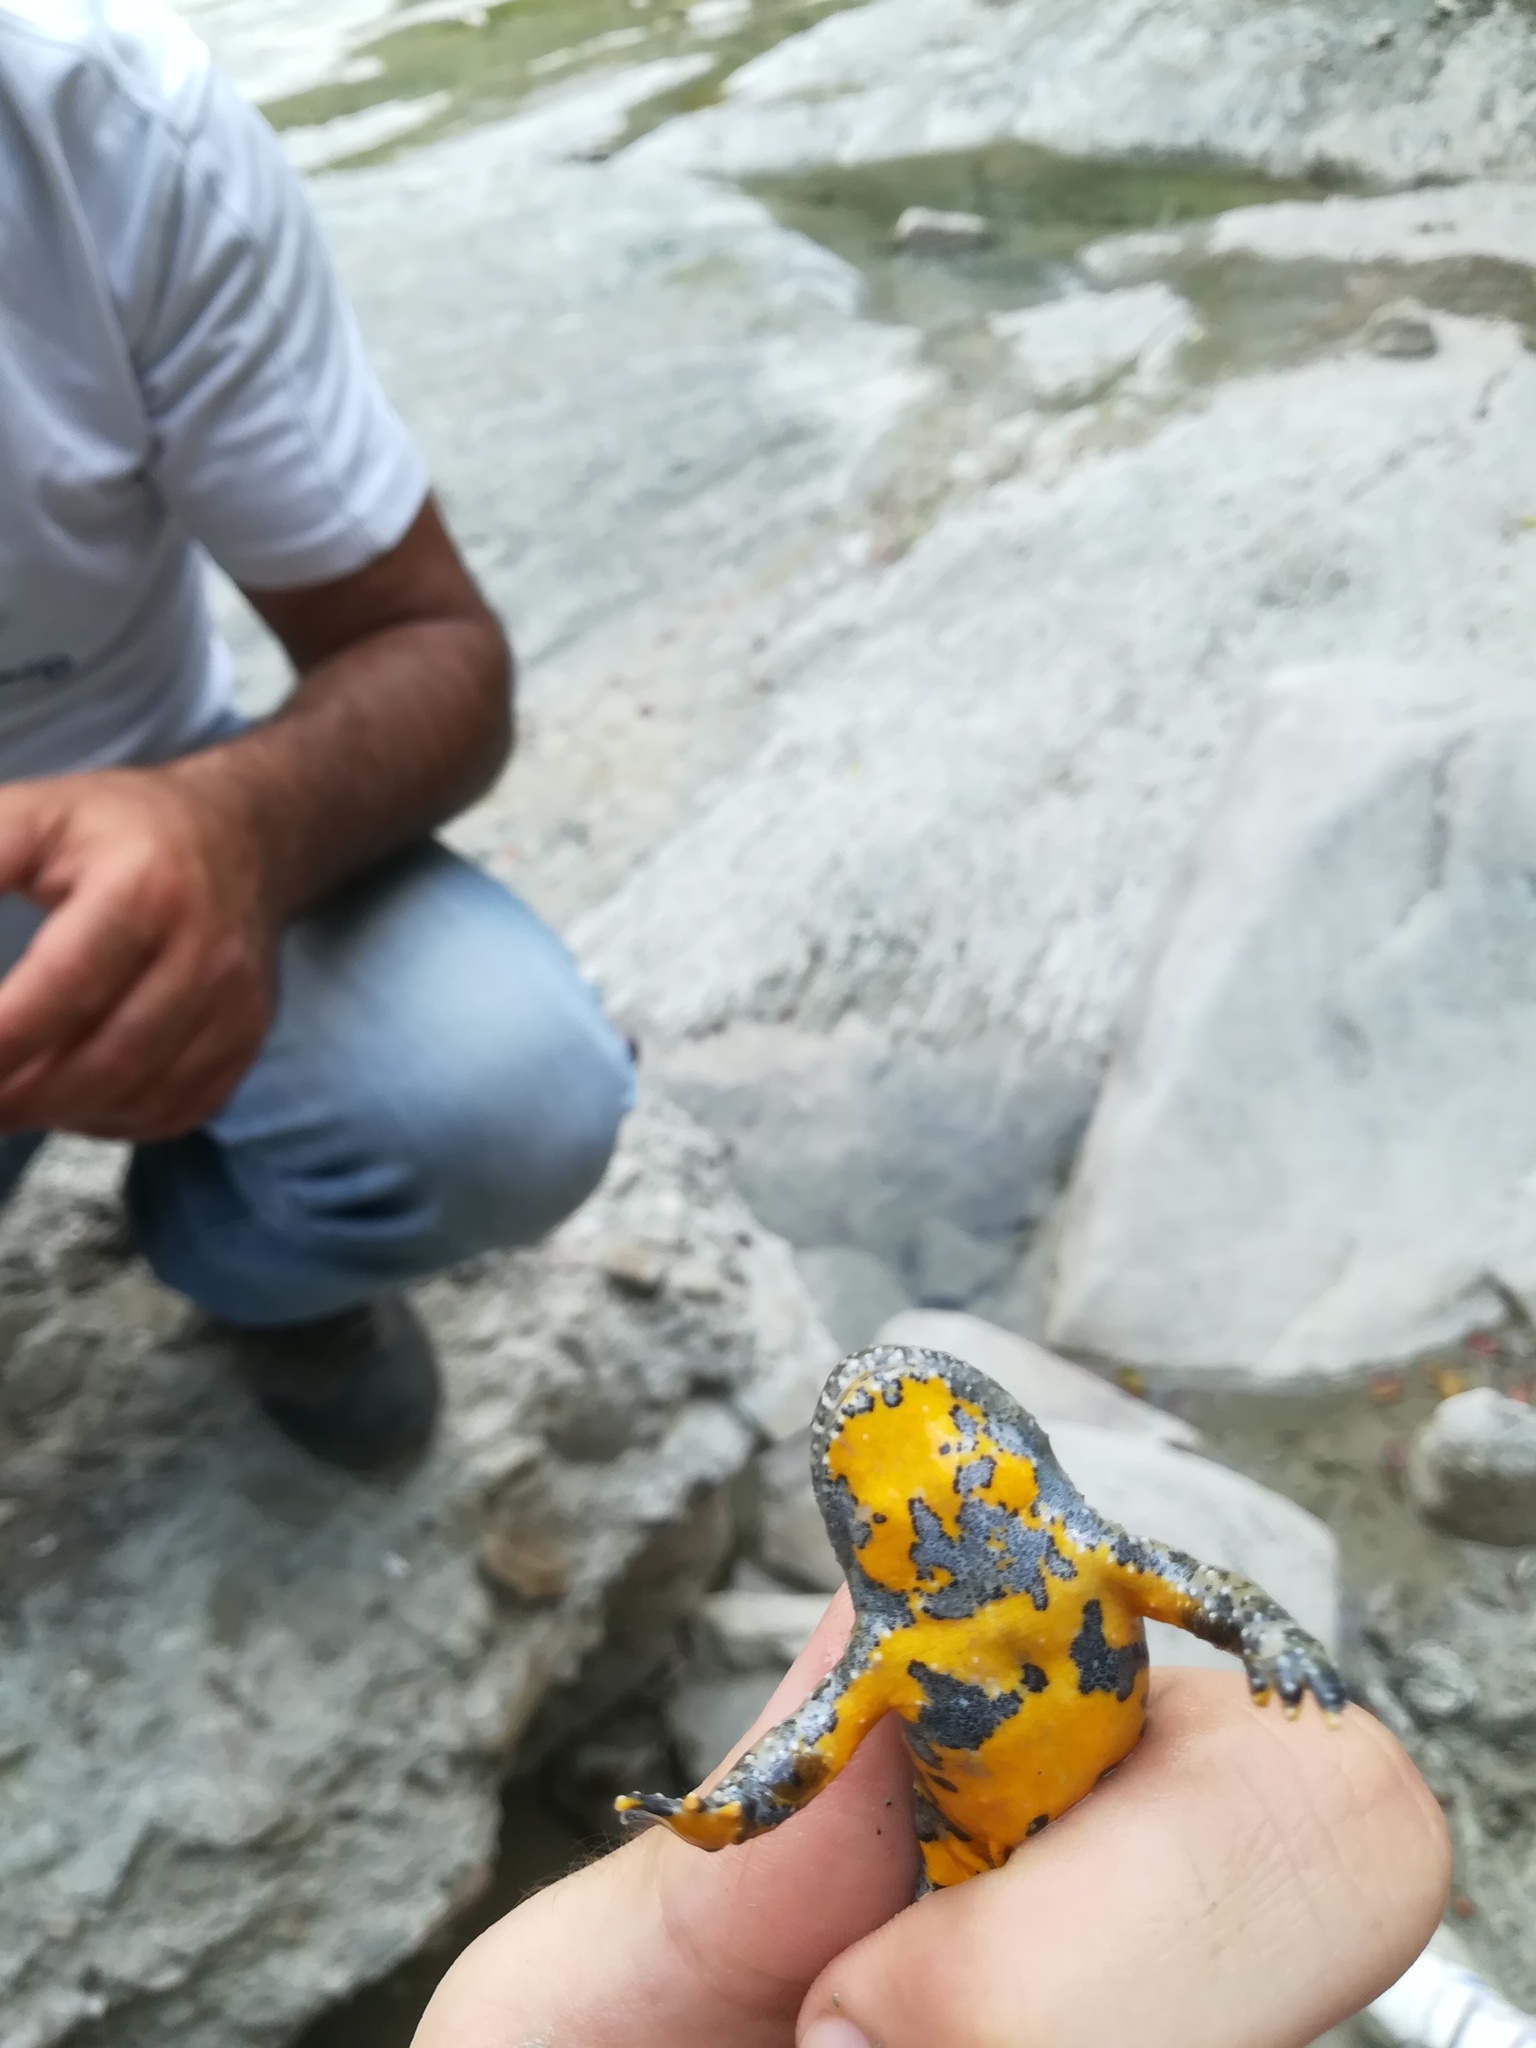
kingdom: Animalia
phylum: Chordata
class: Amphibia
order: Anura
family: Bombinatoridae
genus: Bombina
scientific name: Bombina variegata
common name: Yellow-bellied toad
